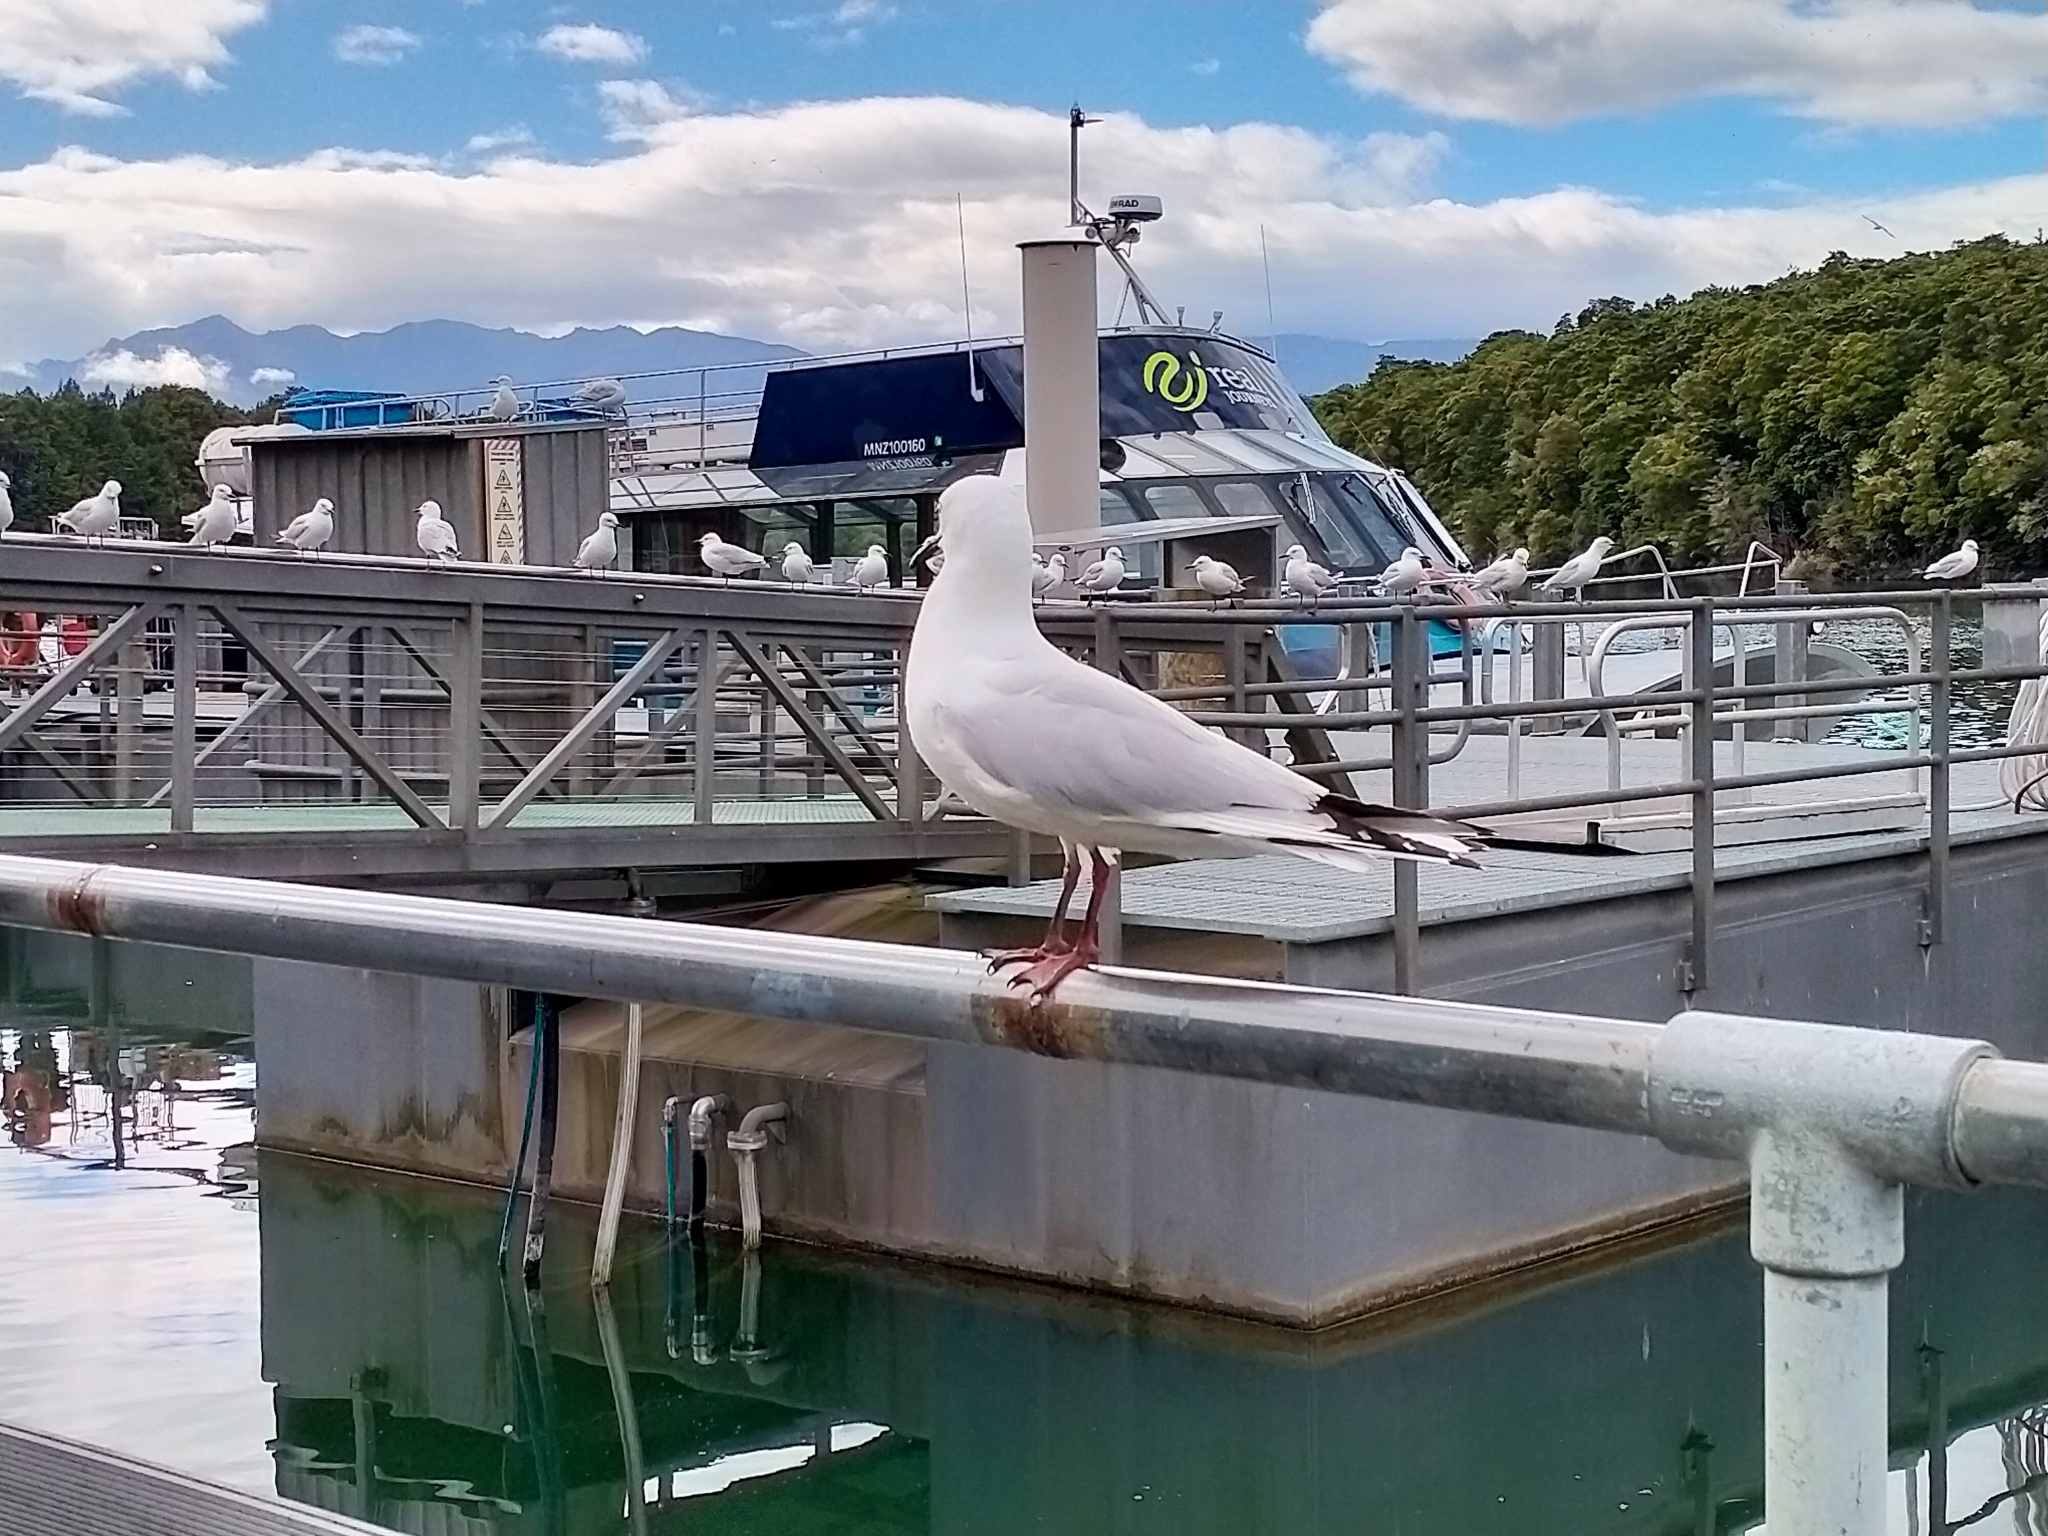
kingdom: Animalia
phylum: Chordata
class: Aves
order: Charadriiformes
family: Laridae
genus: Chroicocephalus
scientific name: Chroicocephalus bulleri
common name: Black-billed gull
